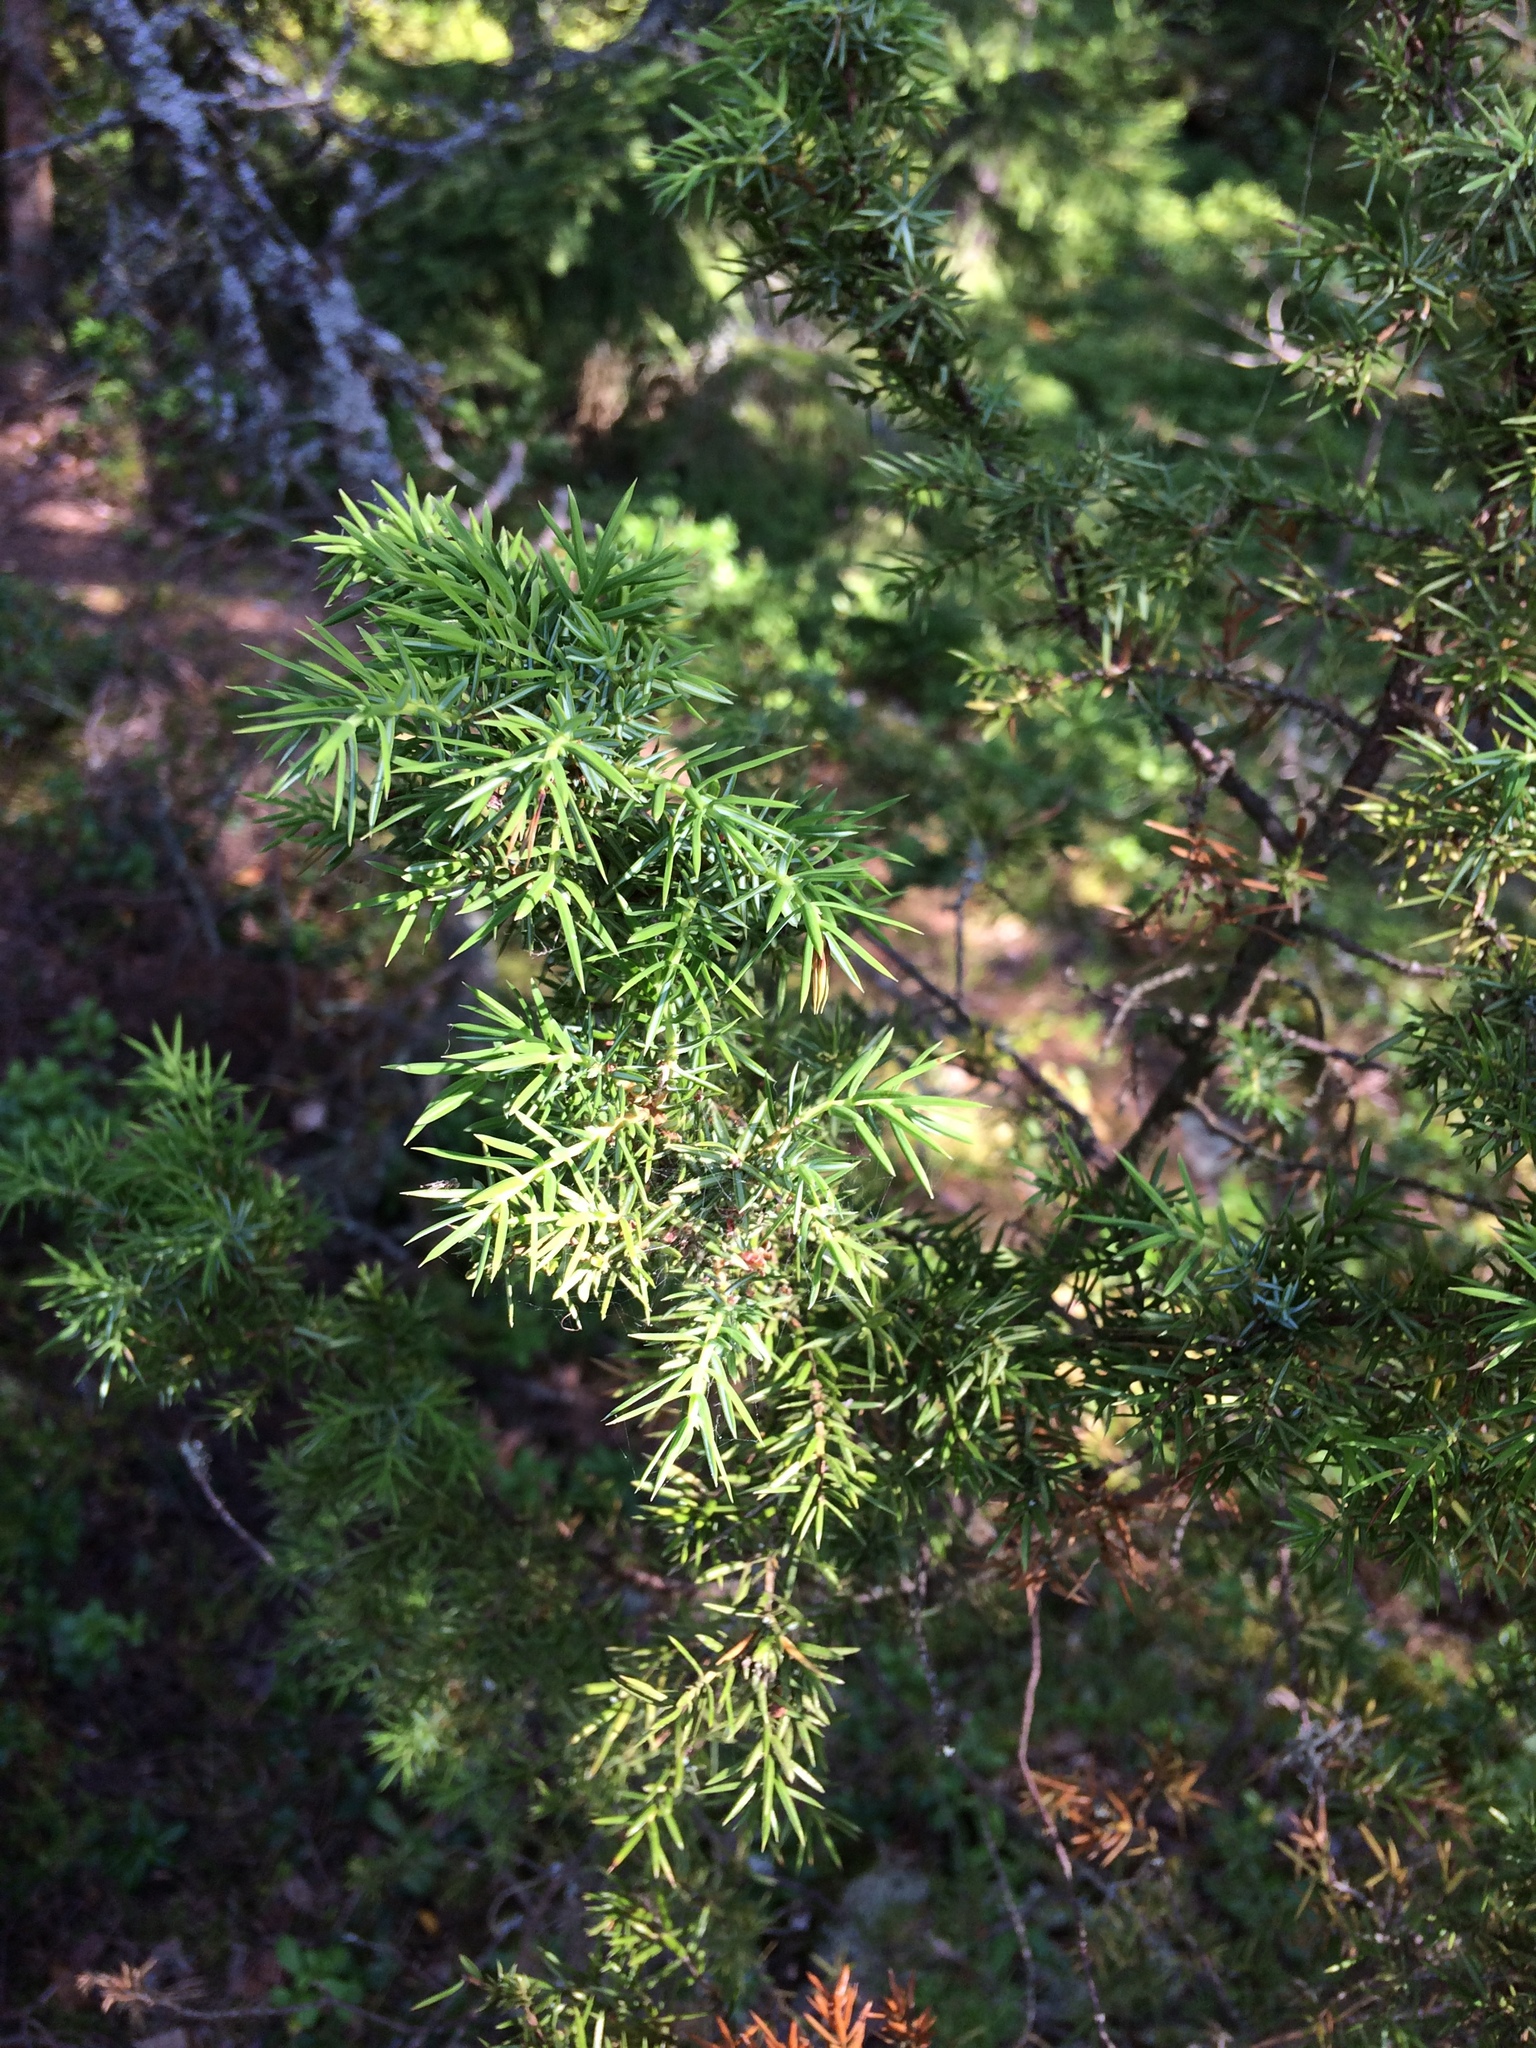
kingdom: Plantae
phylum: Tracheophyta
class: Pinopsida
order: Pinales
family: Cupressaceae
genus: Juniperus
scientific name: Juniperus communis
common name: Common juniper
